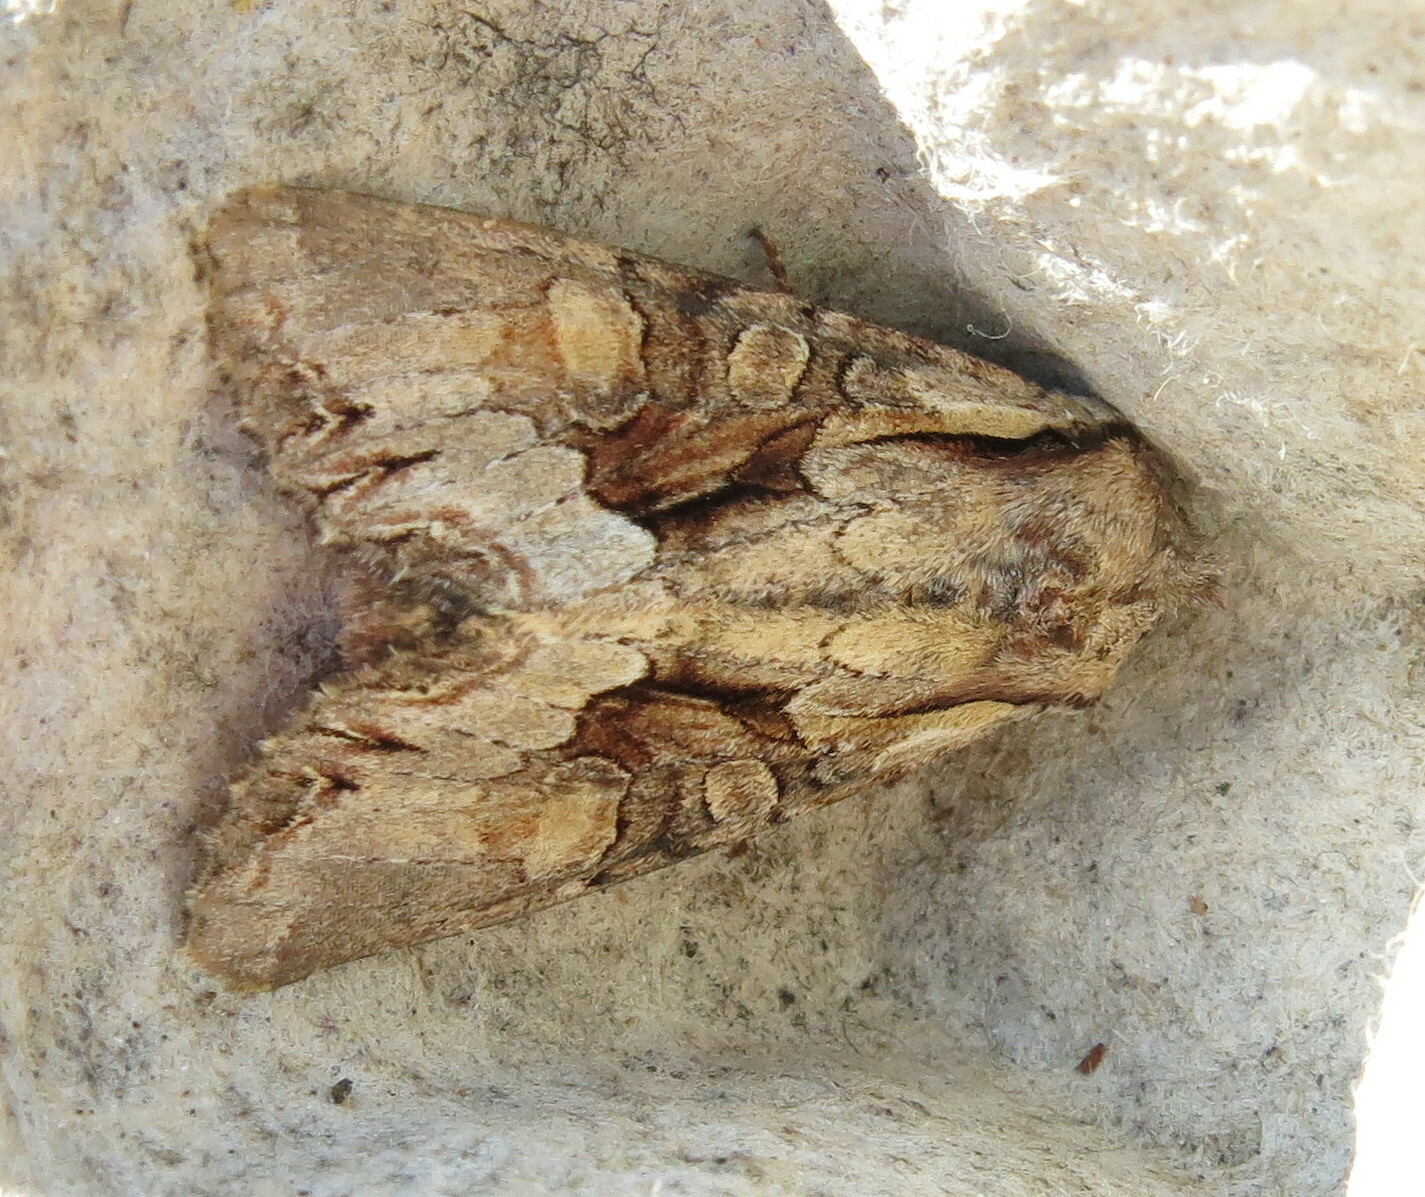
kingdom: Animalia
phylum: Arthropoda
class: Insecta
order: Lepidoptera
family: Noctuidae
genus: Lacanobia
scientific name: Lacanobia w-latinum
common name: Light brocade
